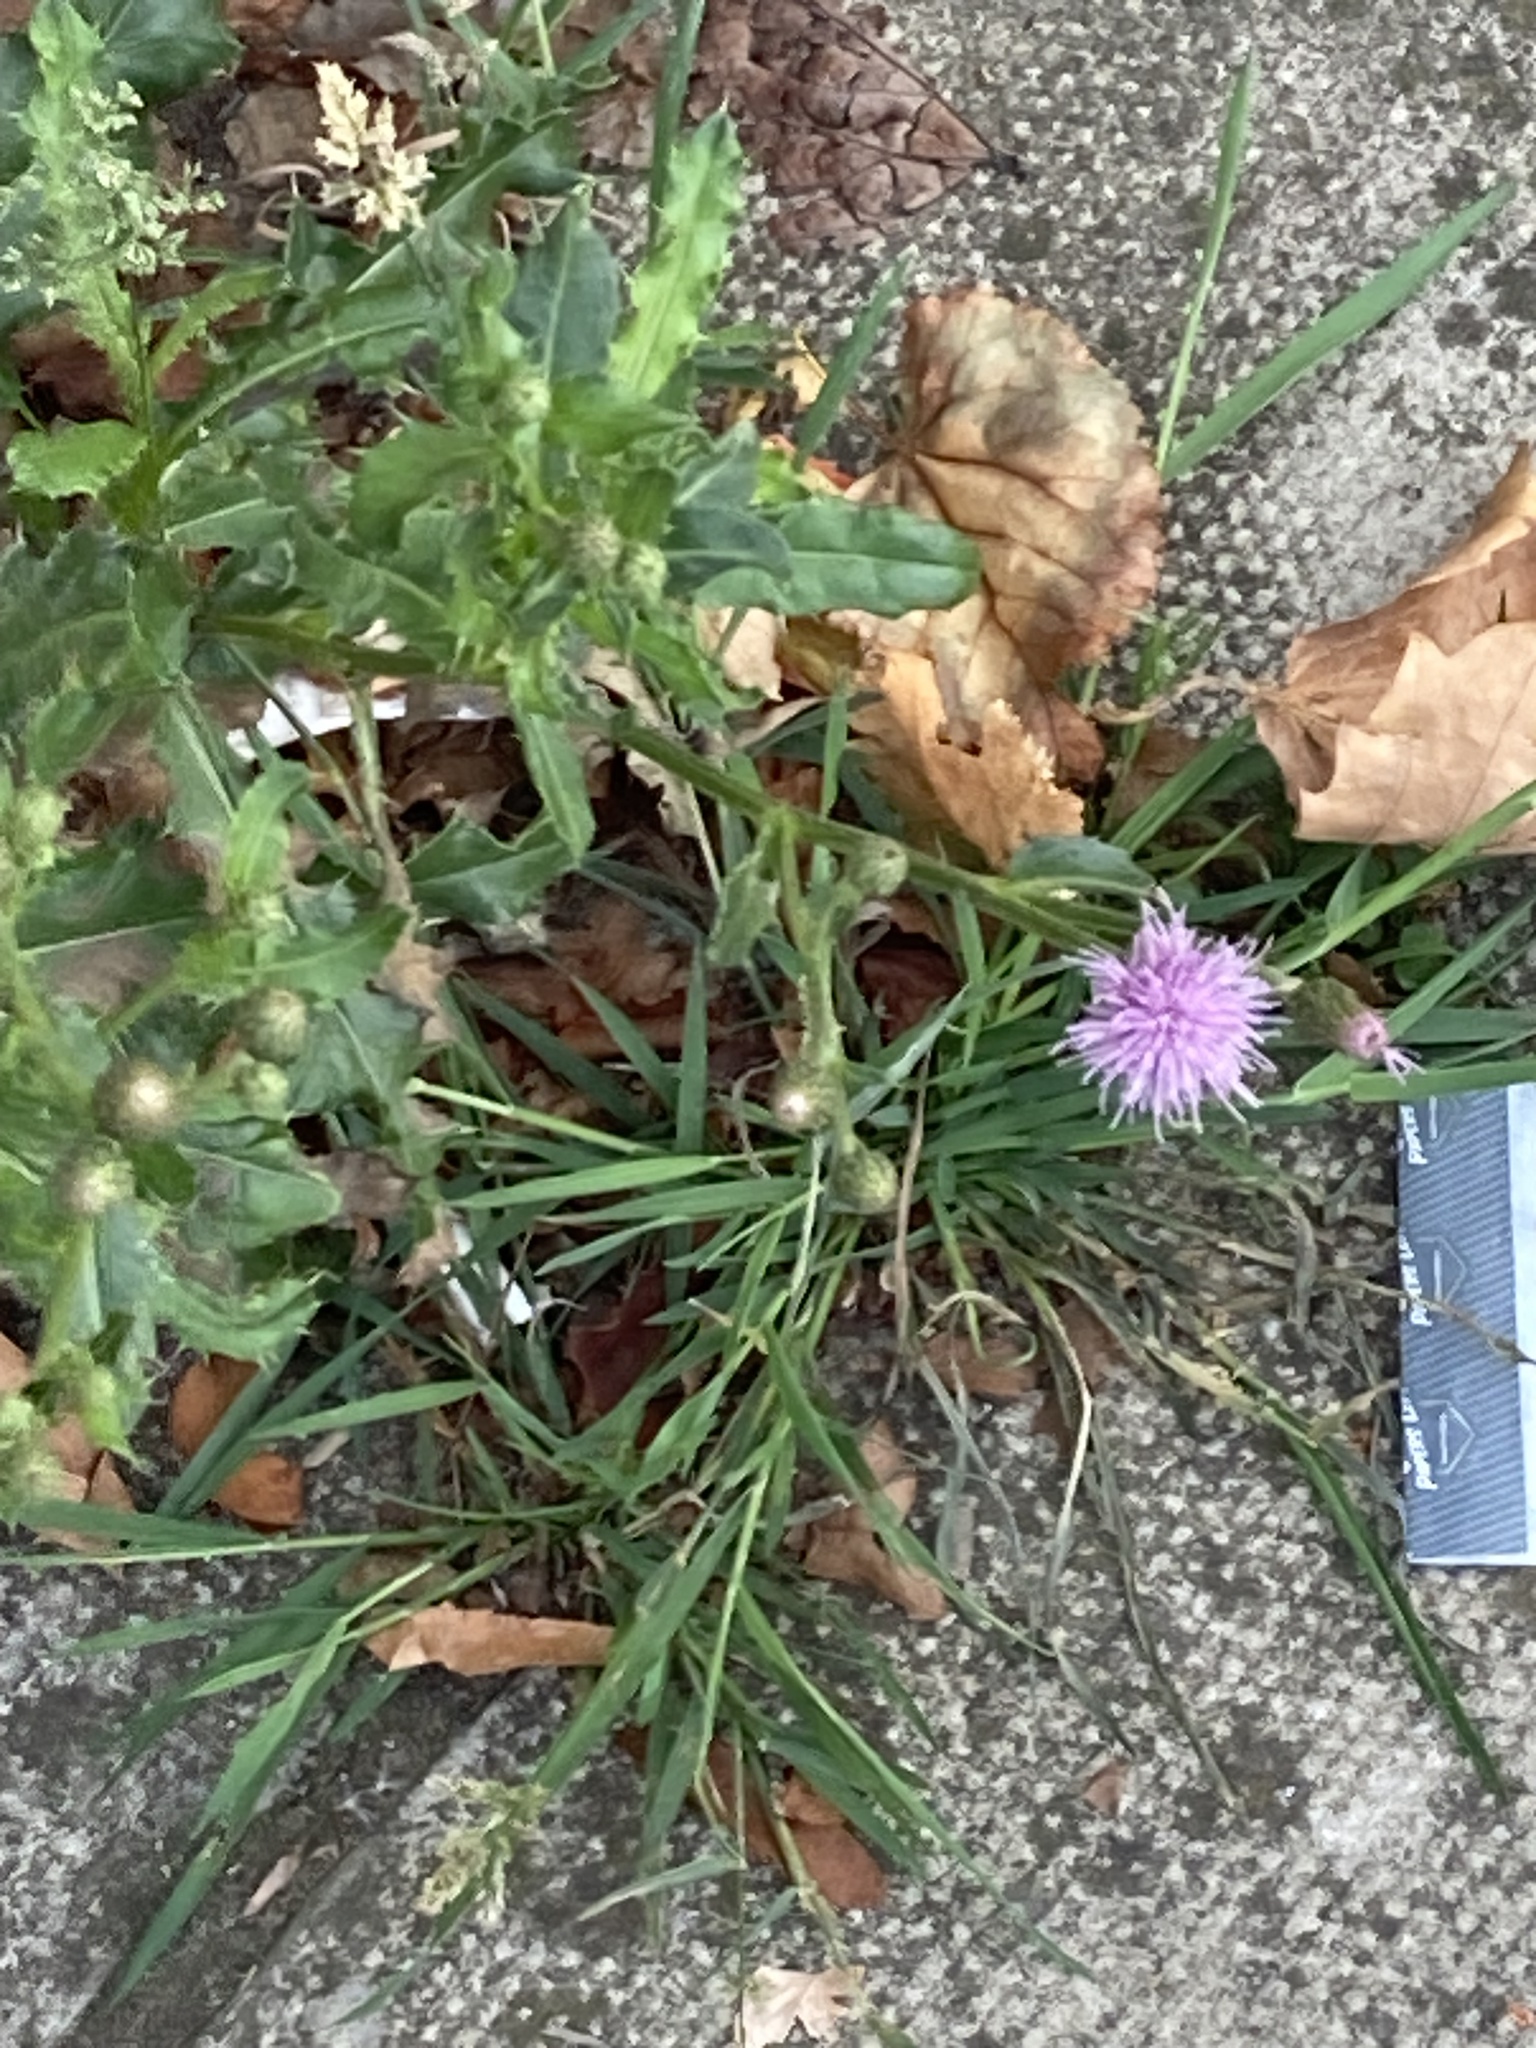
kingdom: Plantae
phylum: Tracheophyta
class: Magnoliopsida
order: Asterales
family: Asteraceae
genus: Cirsium
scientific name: Cirsium arvense
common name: Creeping thistle
